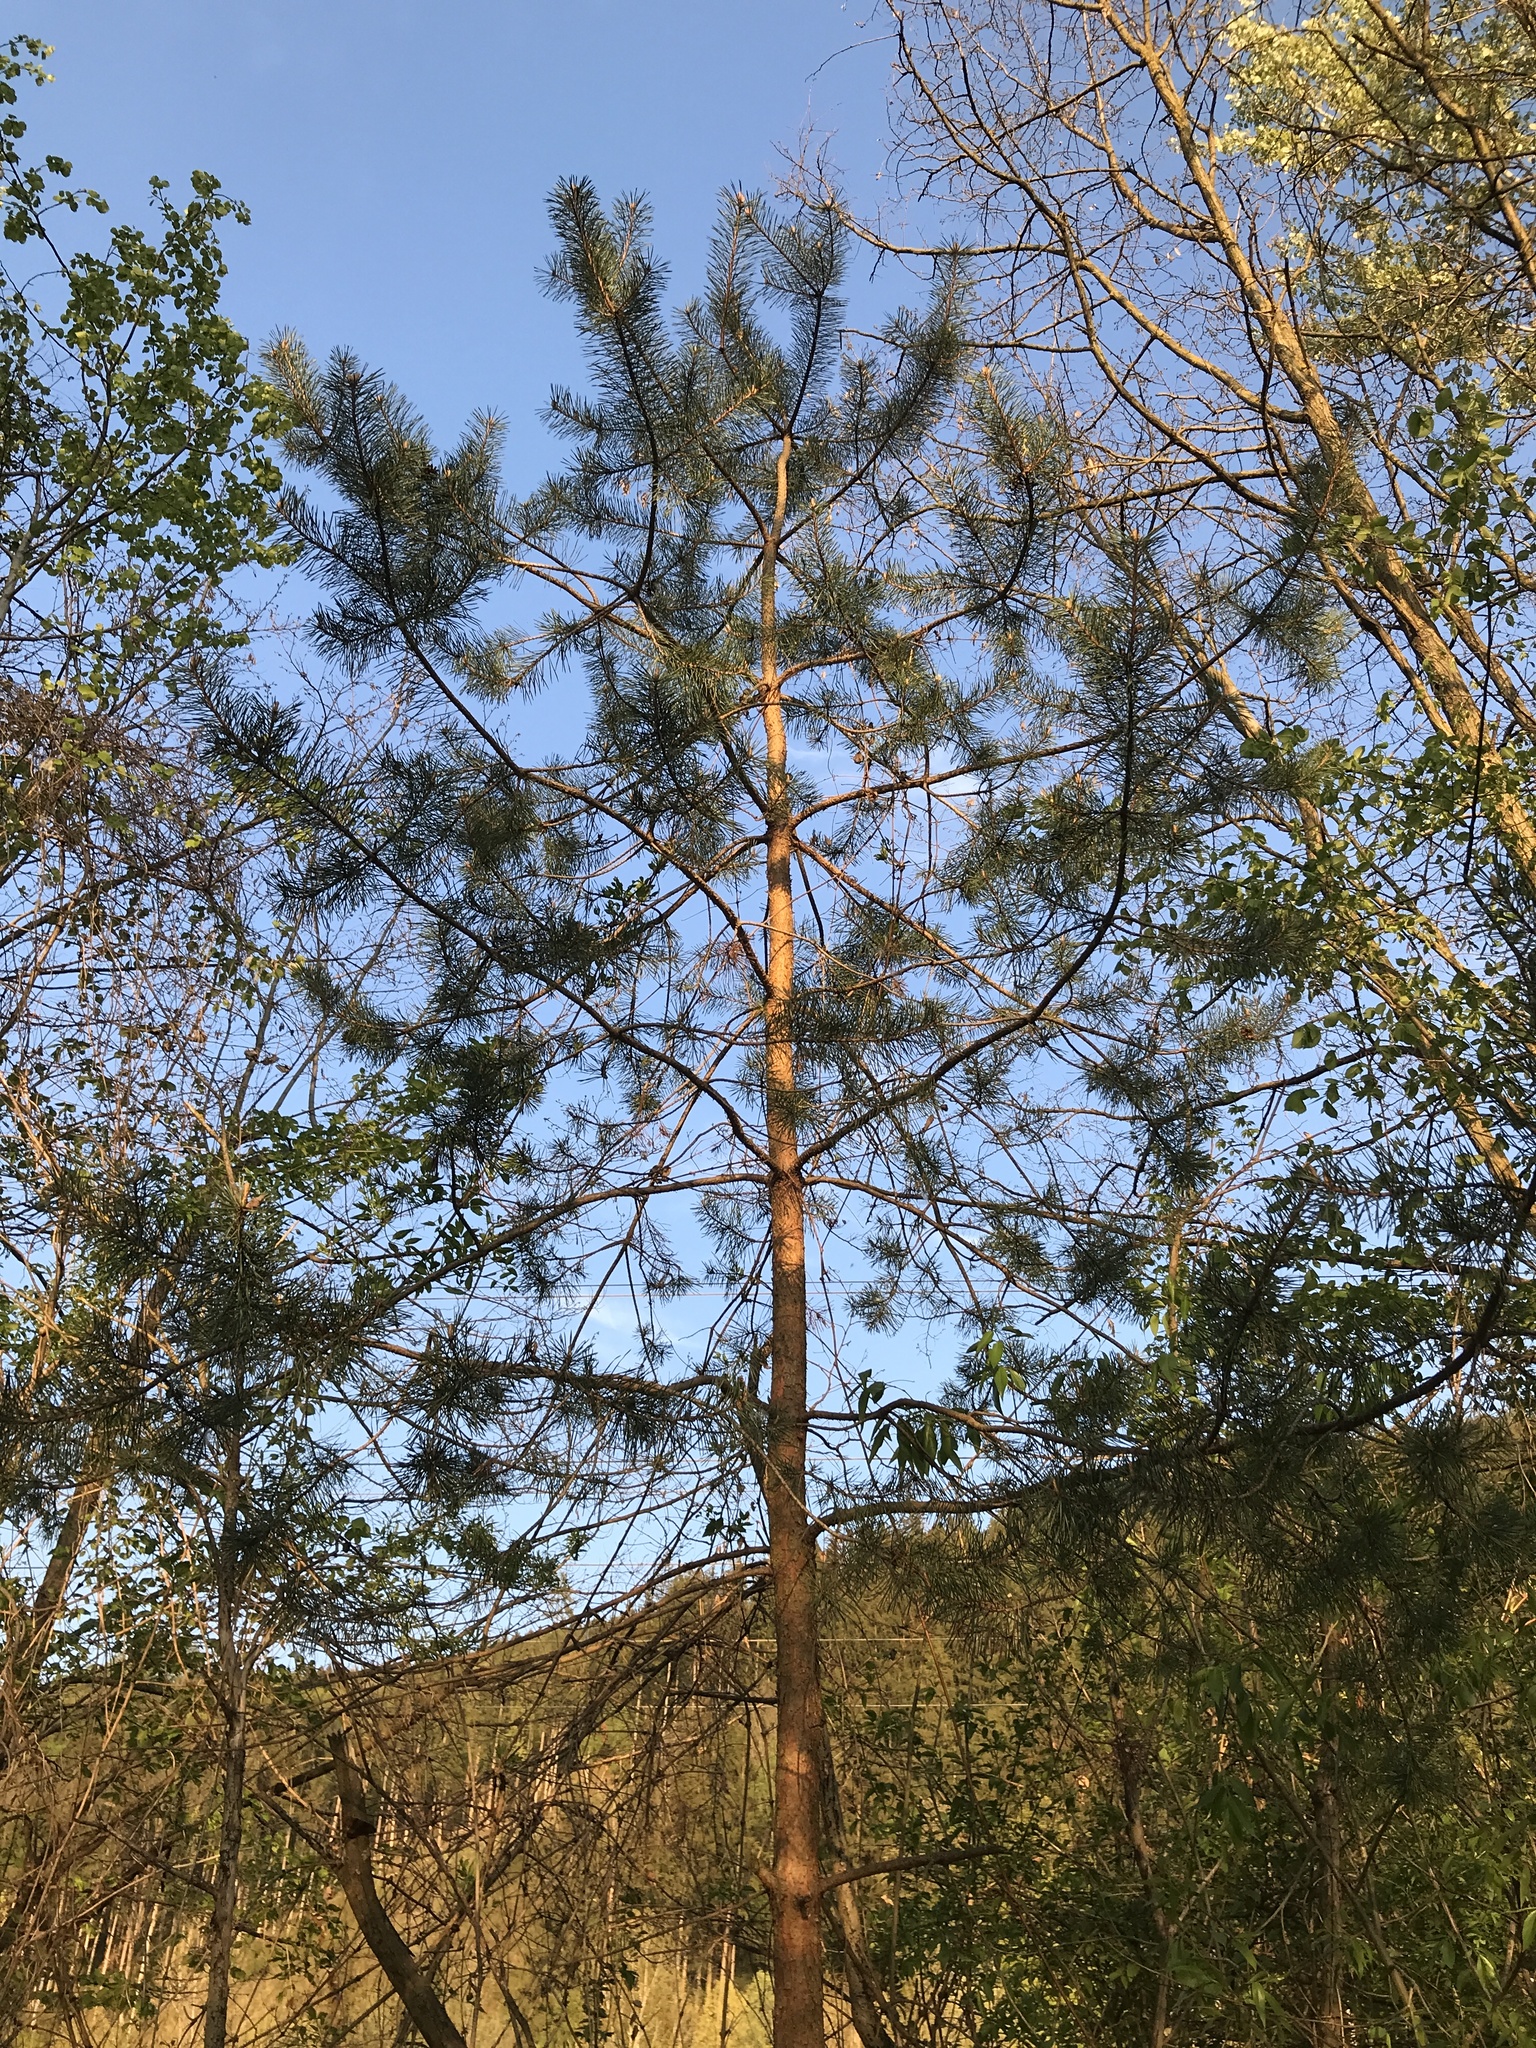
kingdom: Plantae
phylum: Tracheophyta
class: Pinopsida
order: Pinales
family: Pinaceae
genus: Pinus
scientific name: Pinus sylvestris
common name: Scots pine
